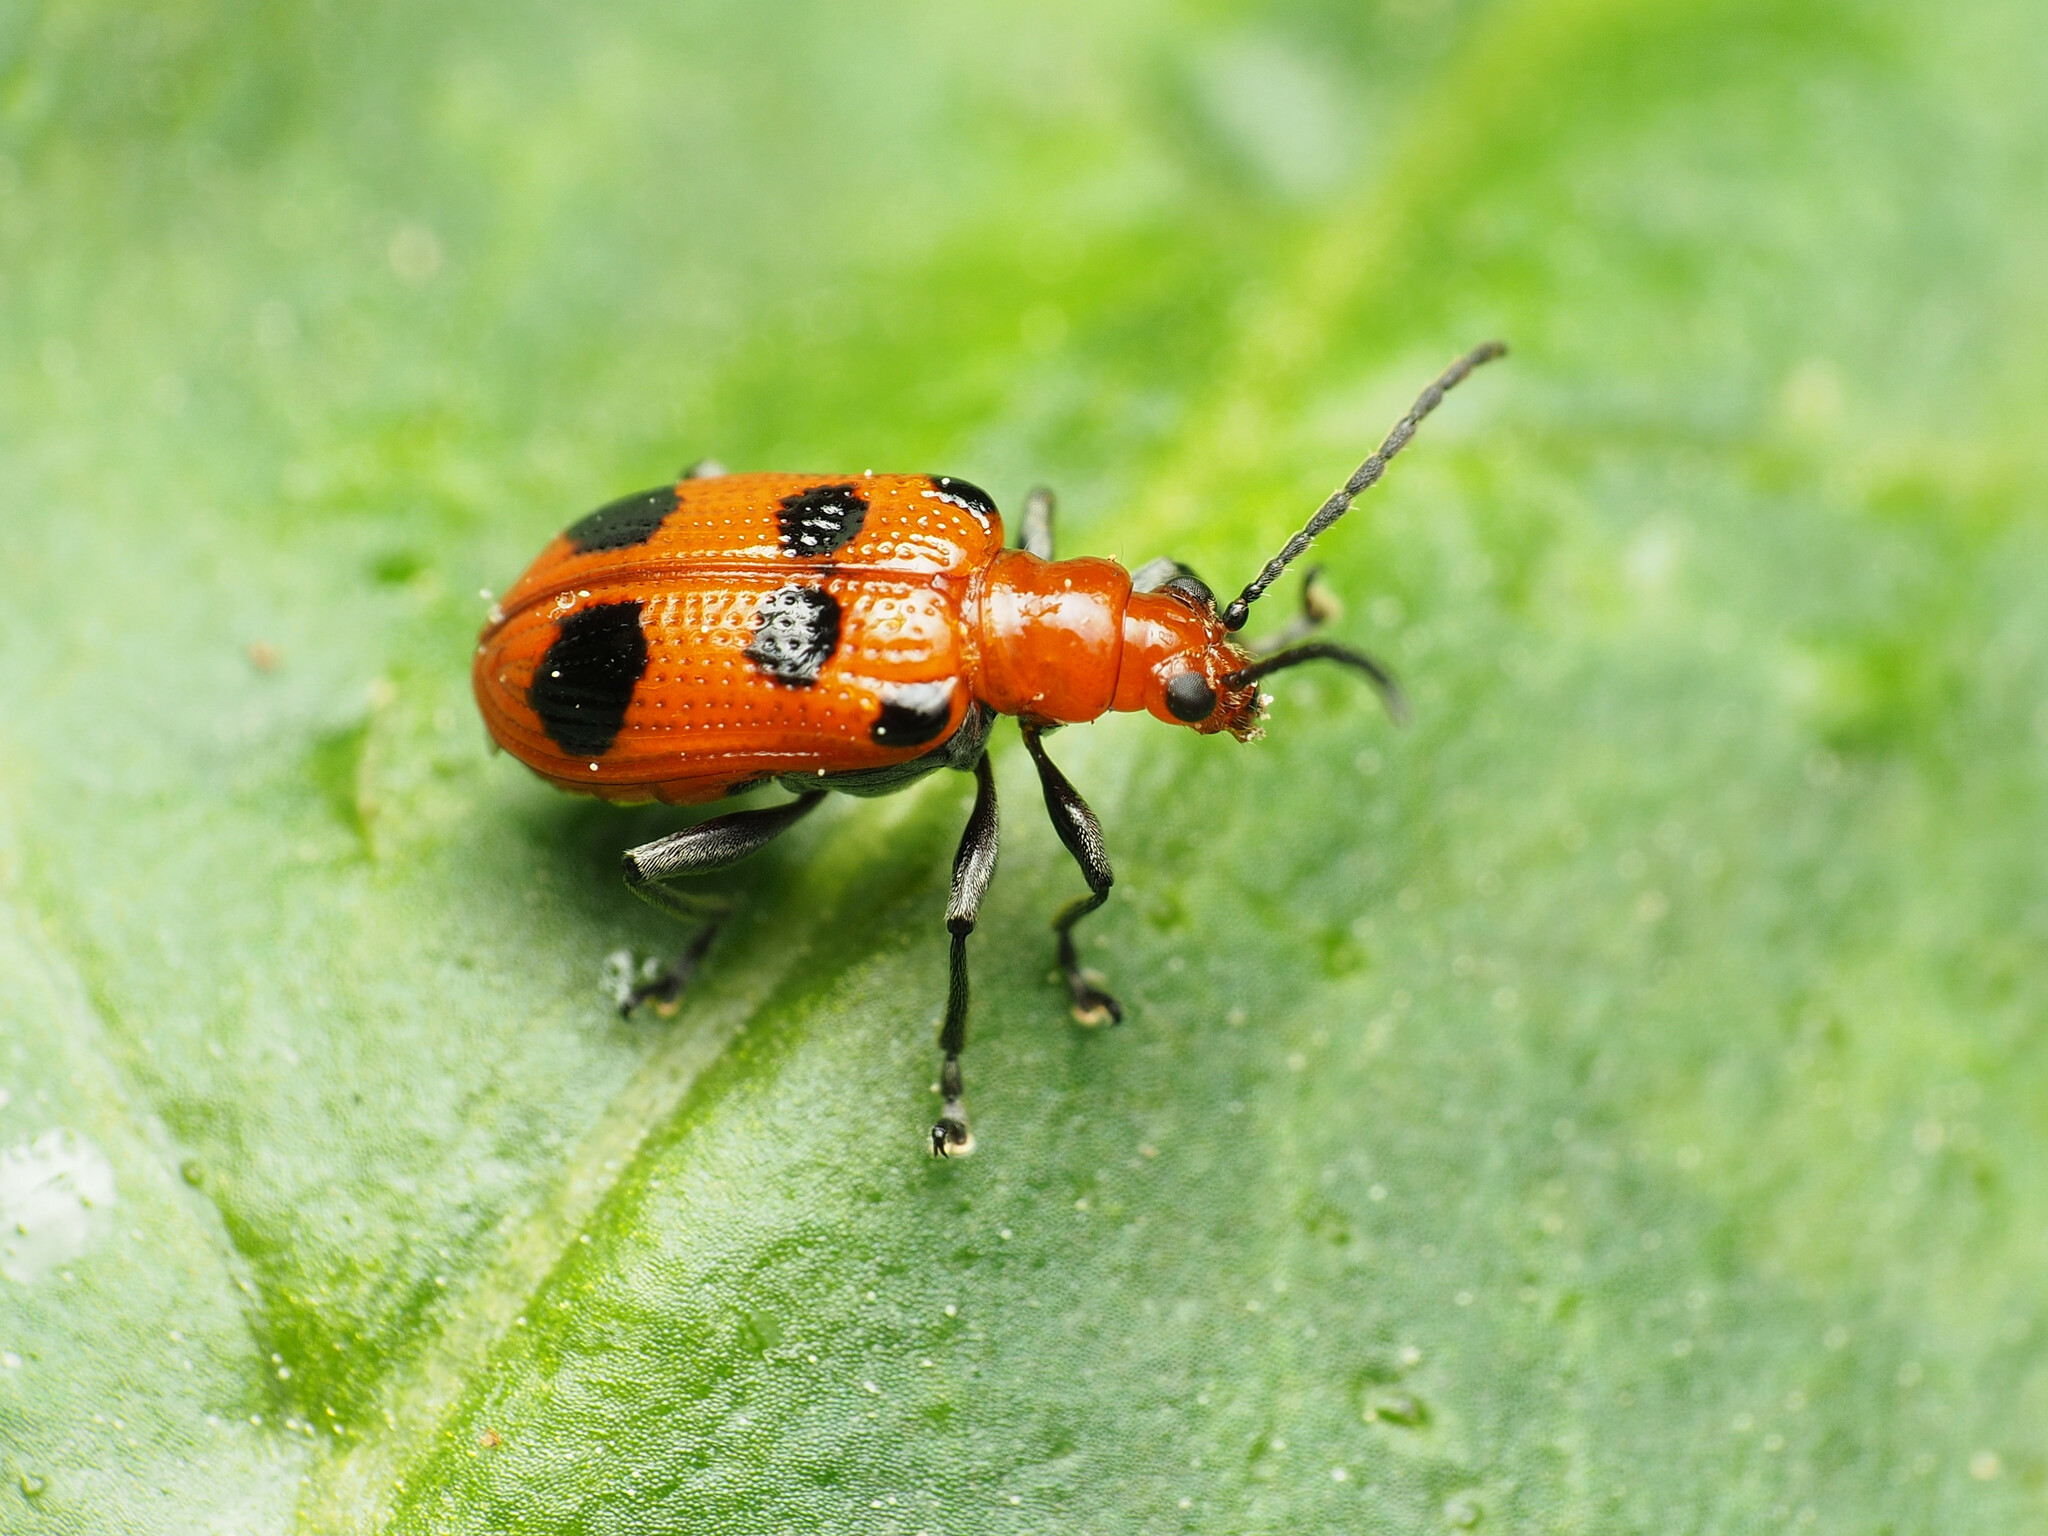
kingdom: Animalia
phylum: Arthropoda
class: Insecta
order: Coleoptera
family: Chrysomelidae
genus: Neolema
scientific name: Neolema sexpunctata
